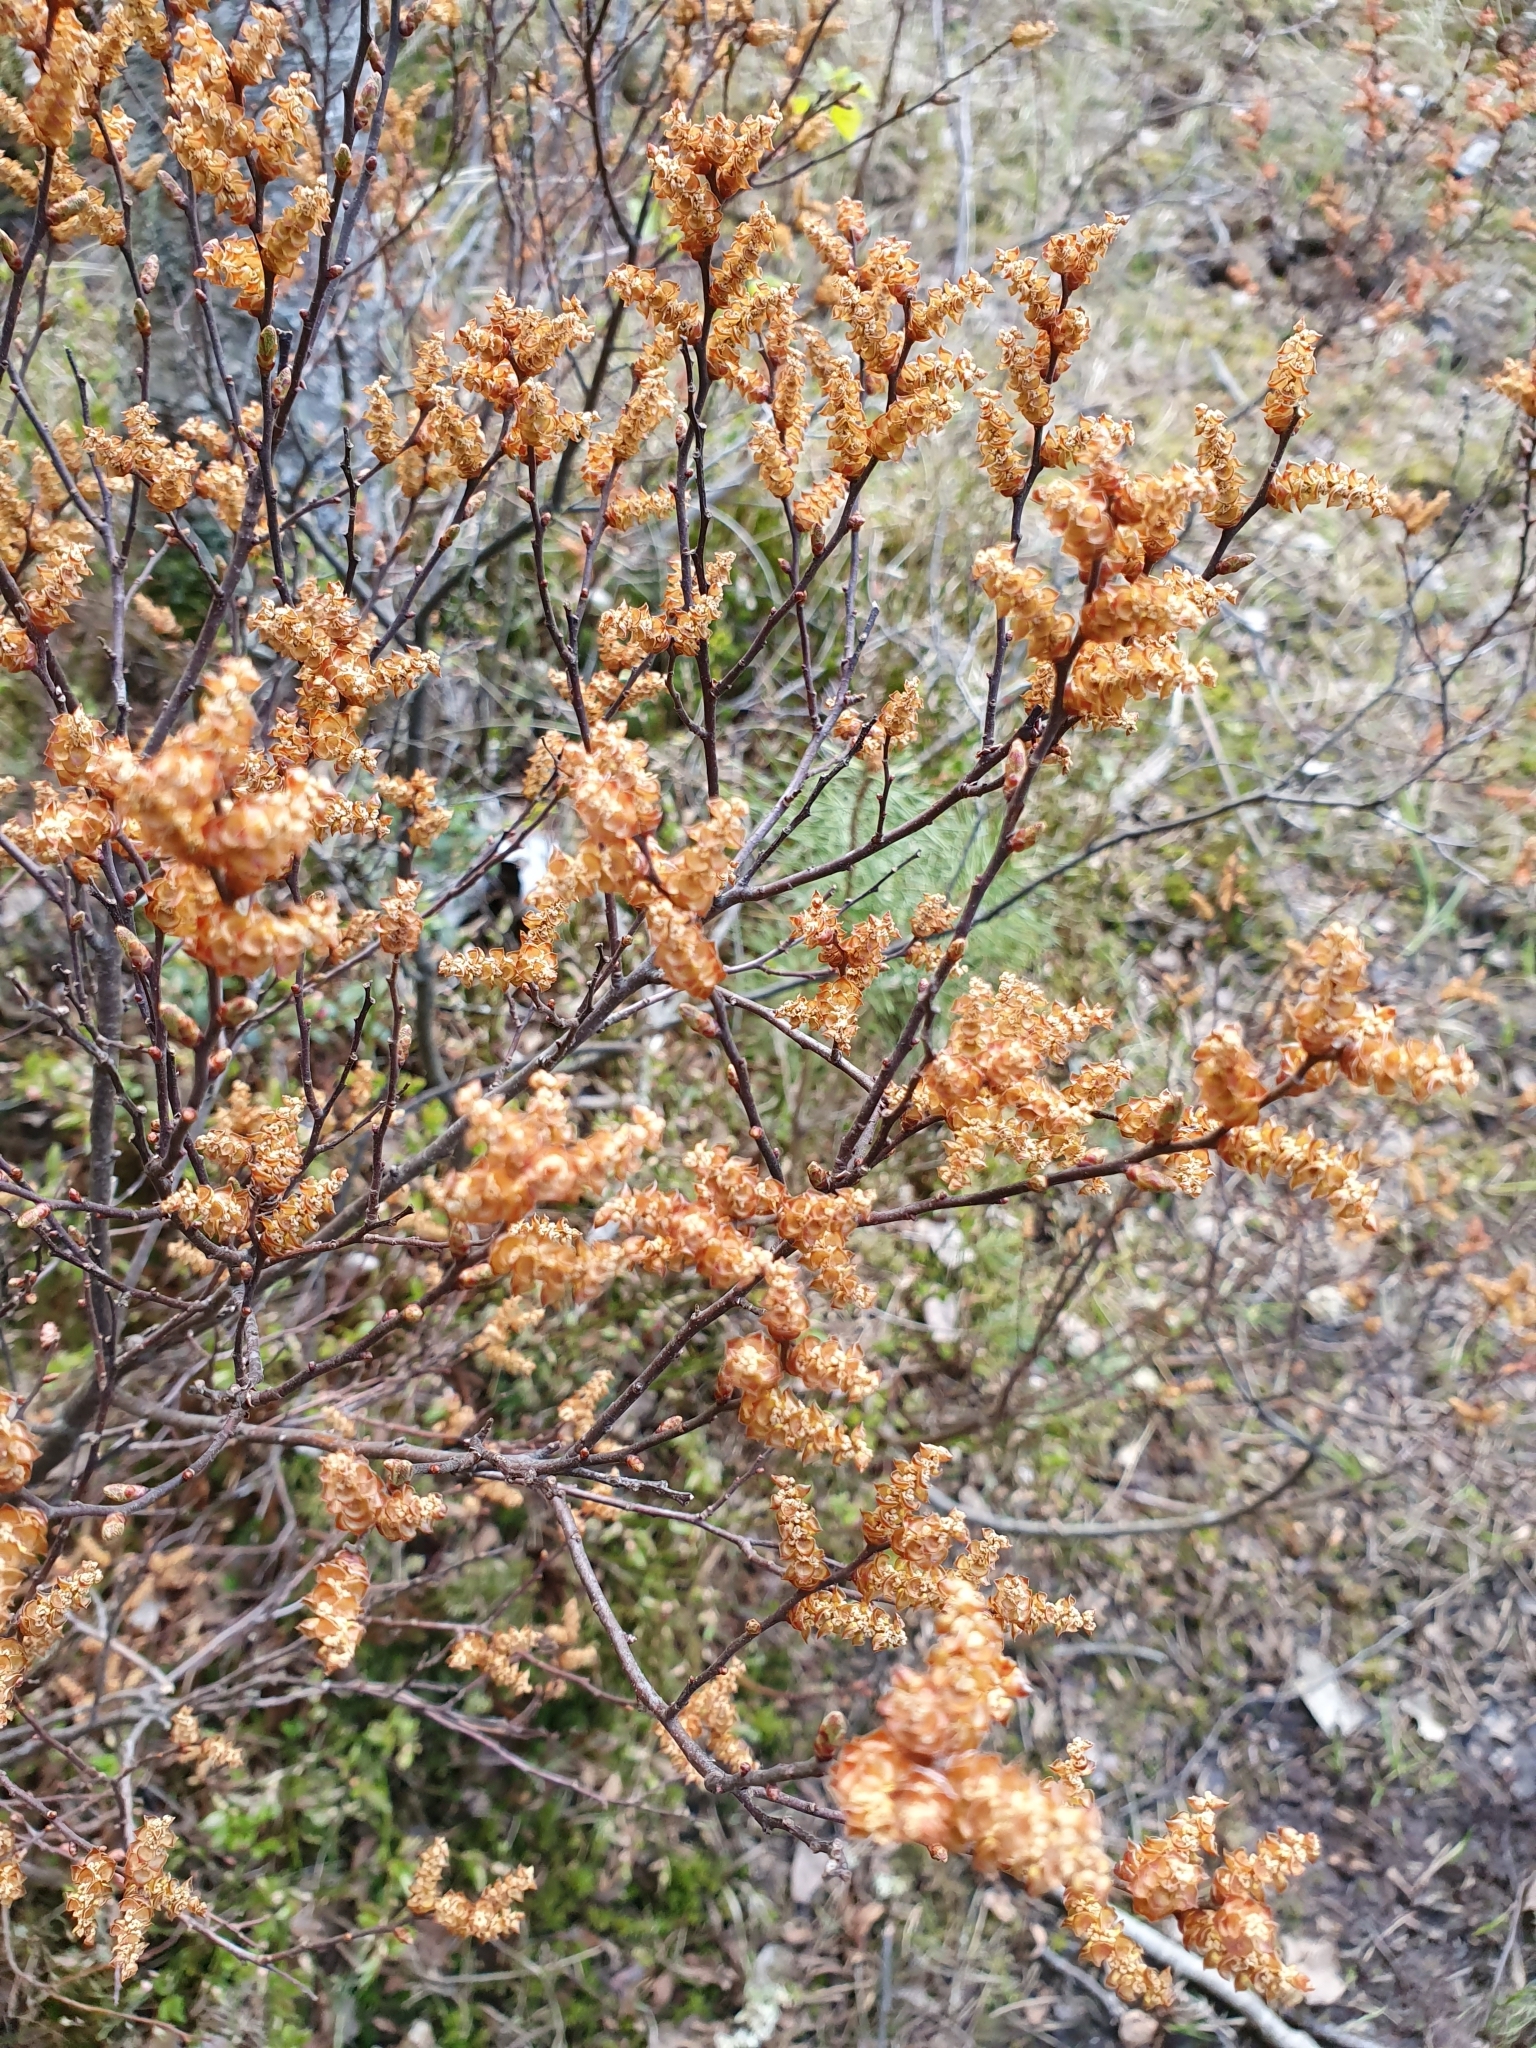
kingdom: Plantae
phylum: Tracheophyta
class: Magnoliopsida
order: Fagales
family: Myricaceae
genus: Myrica
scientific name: Myrica gale
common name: Sweet gale
